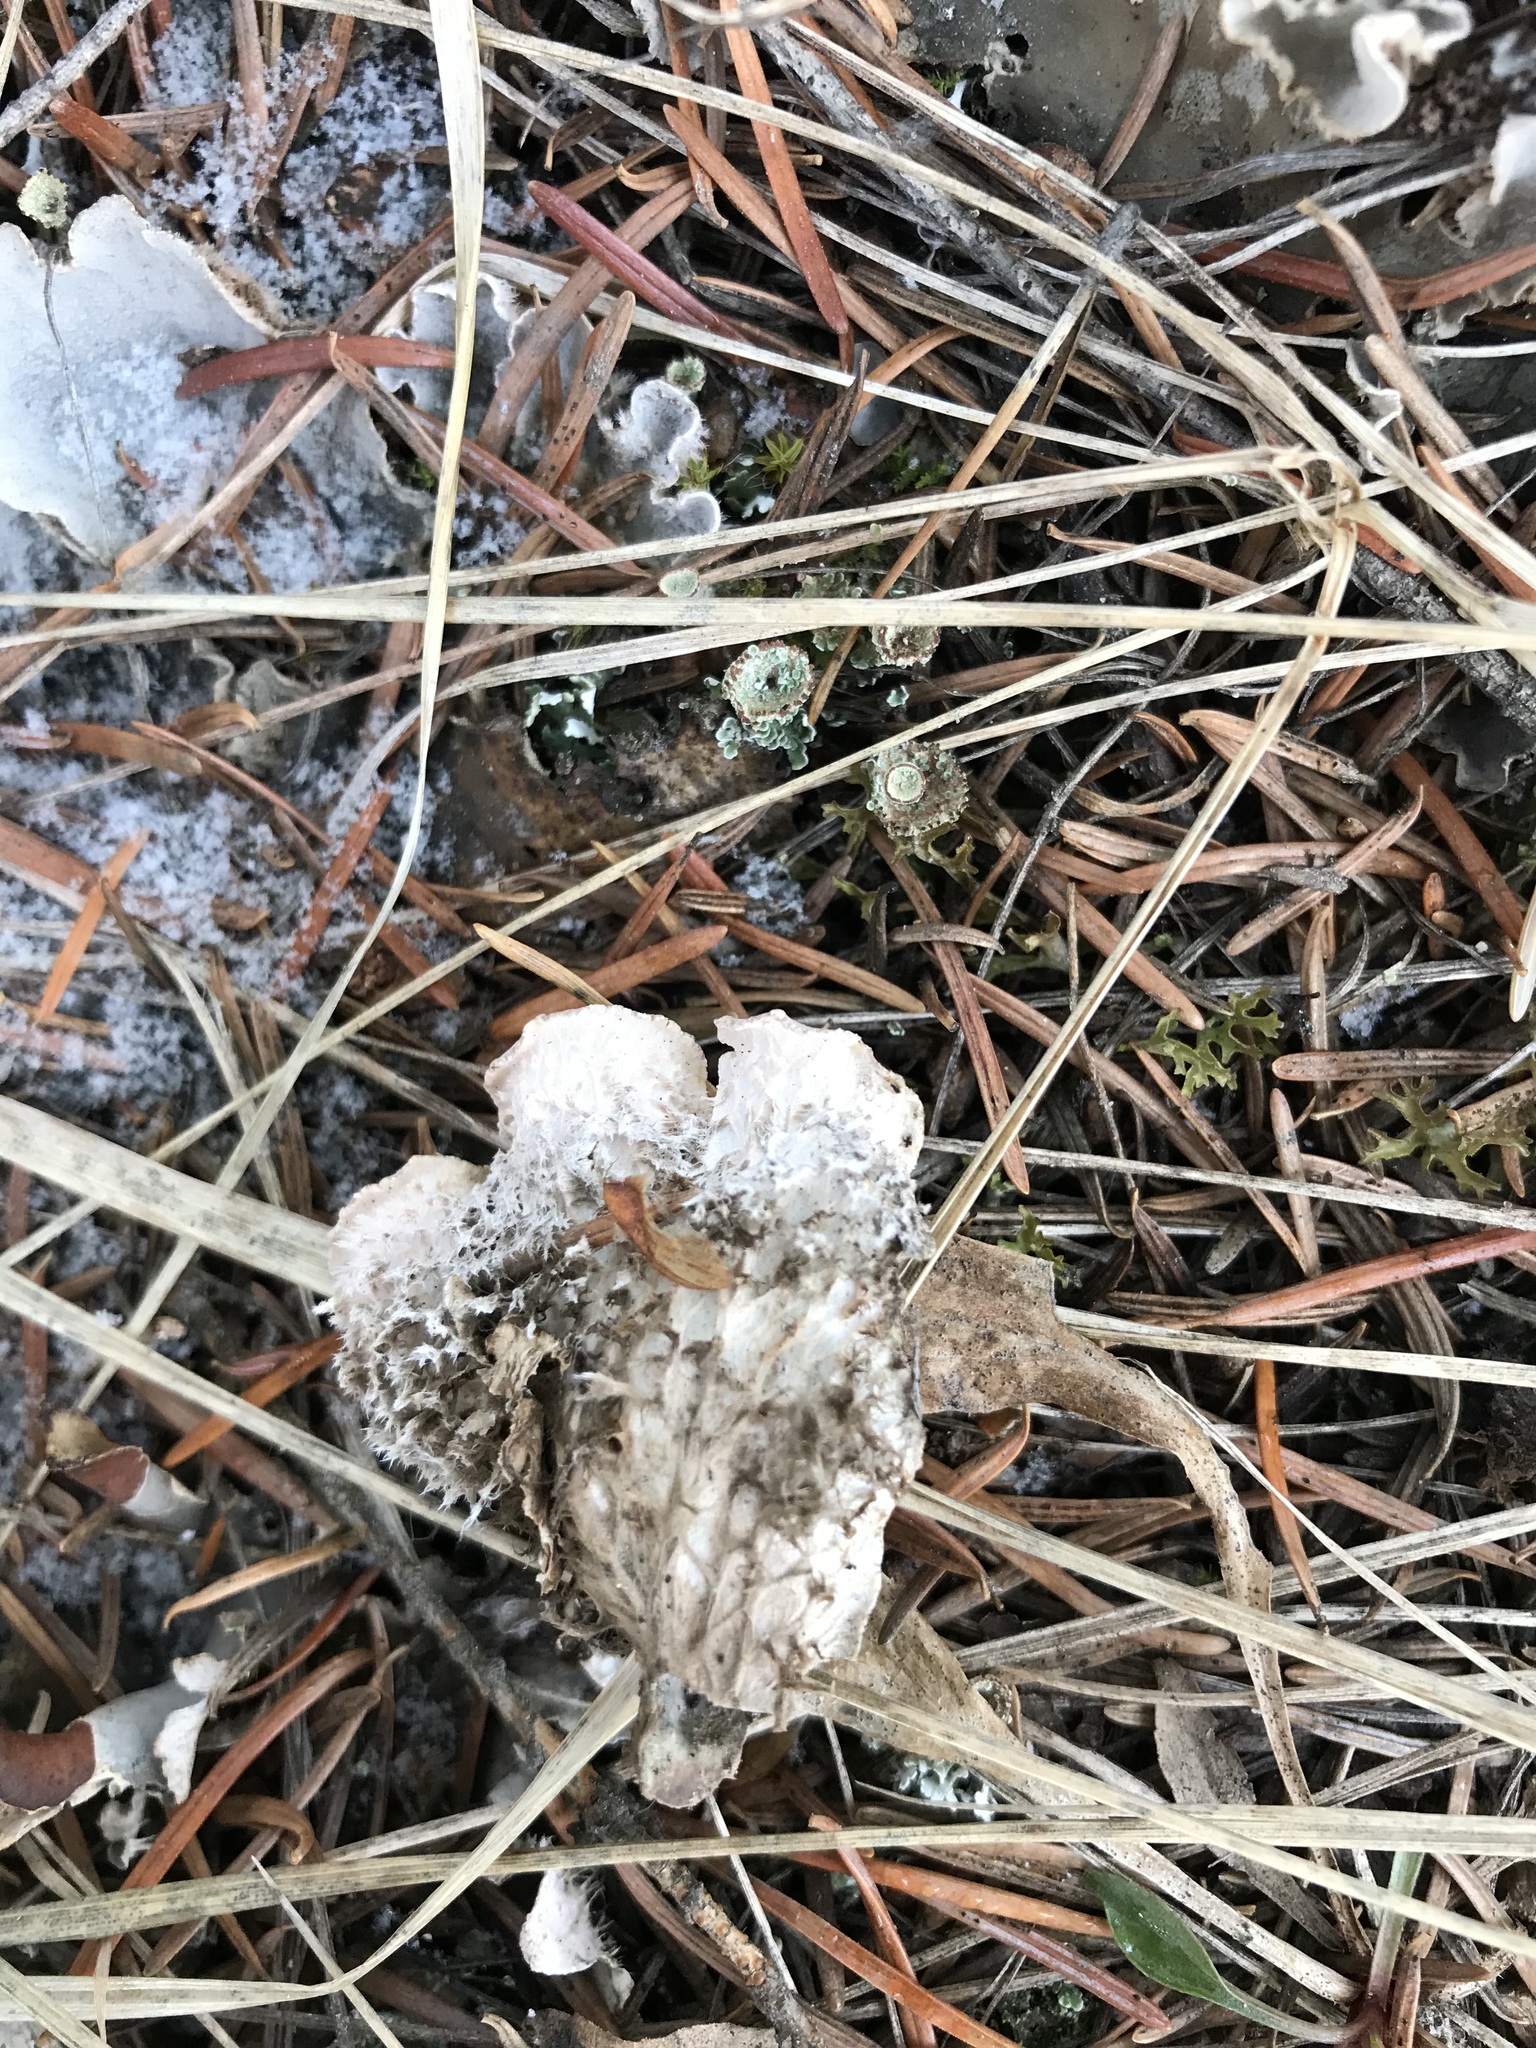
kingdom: Fungi
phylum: Ascomycota
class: Lecanoromycetes
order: Peltigerales
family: Peltigeraceae
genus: Peltigera
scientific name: Peltigera canina
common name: Dog pelt lichen
